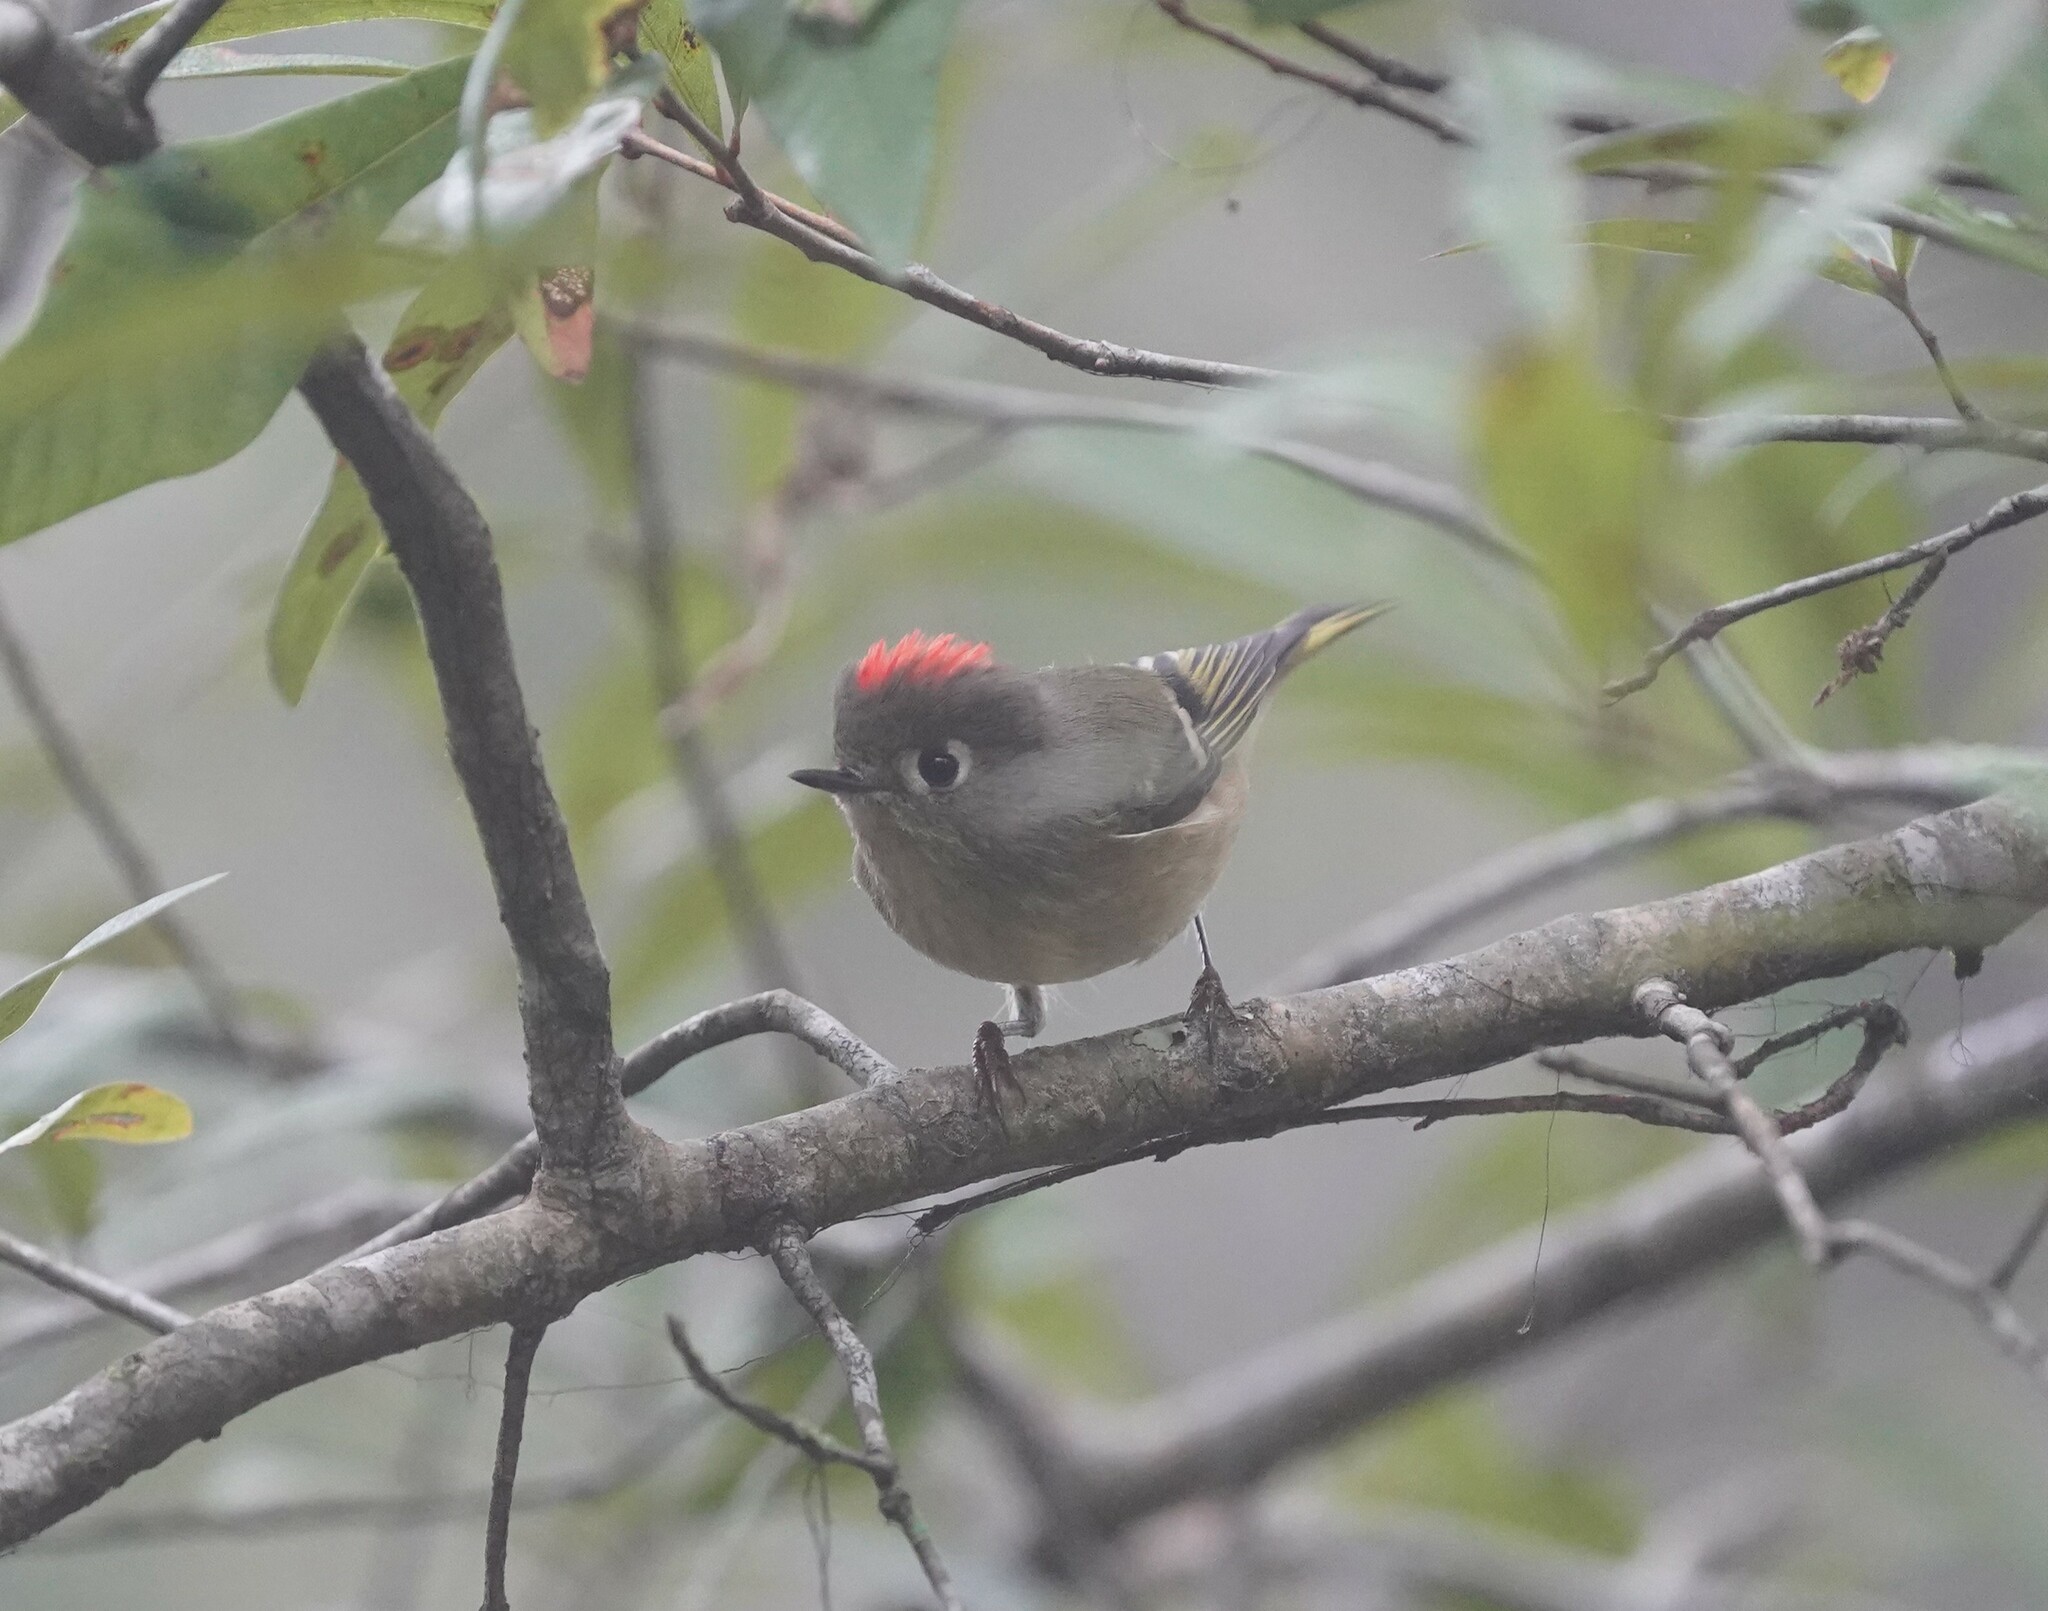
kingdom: Animalia
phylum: Chordata
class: Aves
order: Passeriformes
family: Regulidae
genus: Regulus
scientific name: Regulus calendula
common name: Ruby-crowned kinglet
